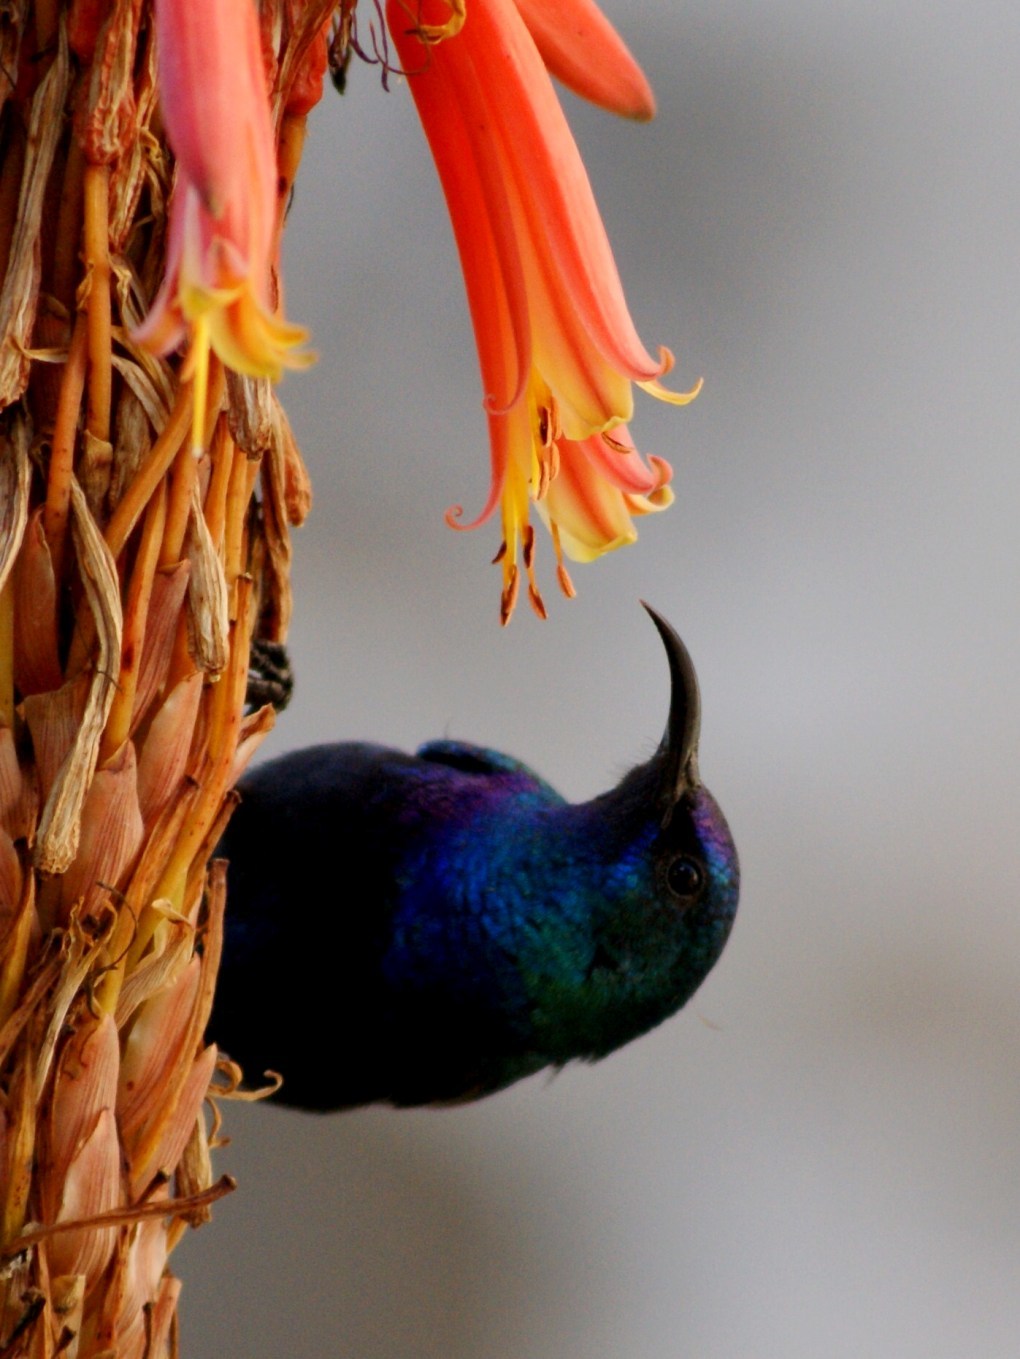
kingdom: Animalia
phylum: Chordata
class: Aves
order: Passeriformes
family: Nectariniidae
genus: Cinnyris
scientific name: Cinnyris osea
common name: Palestine sunbird
